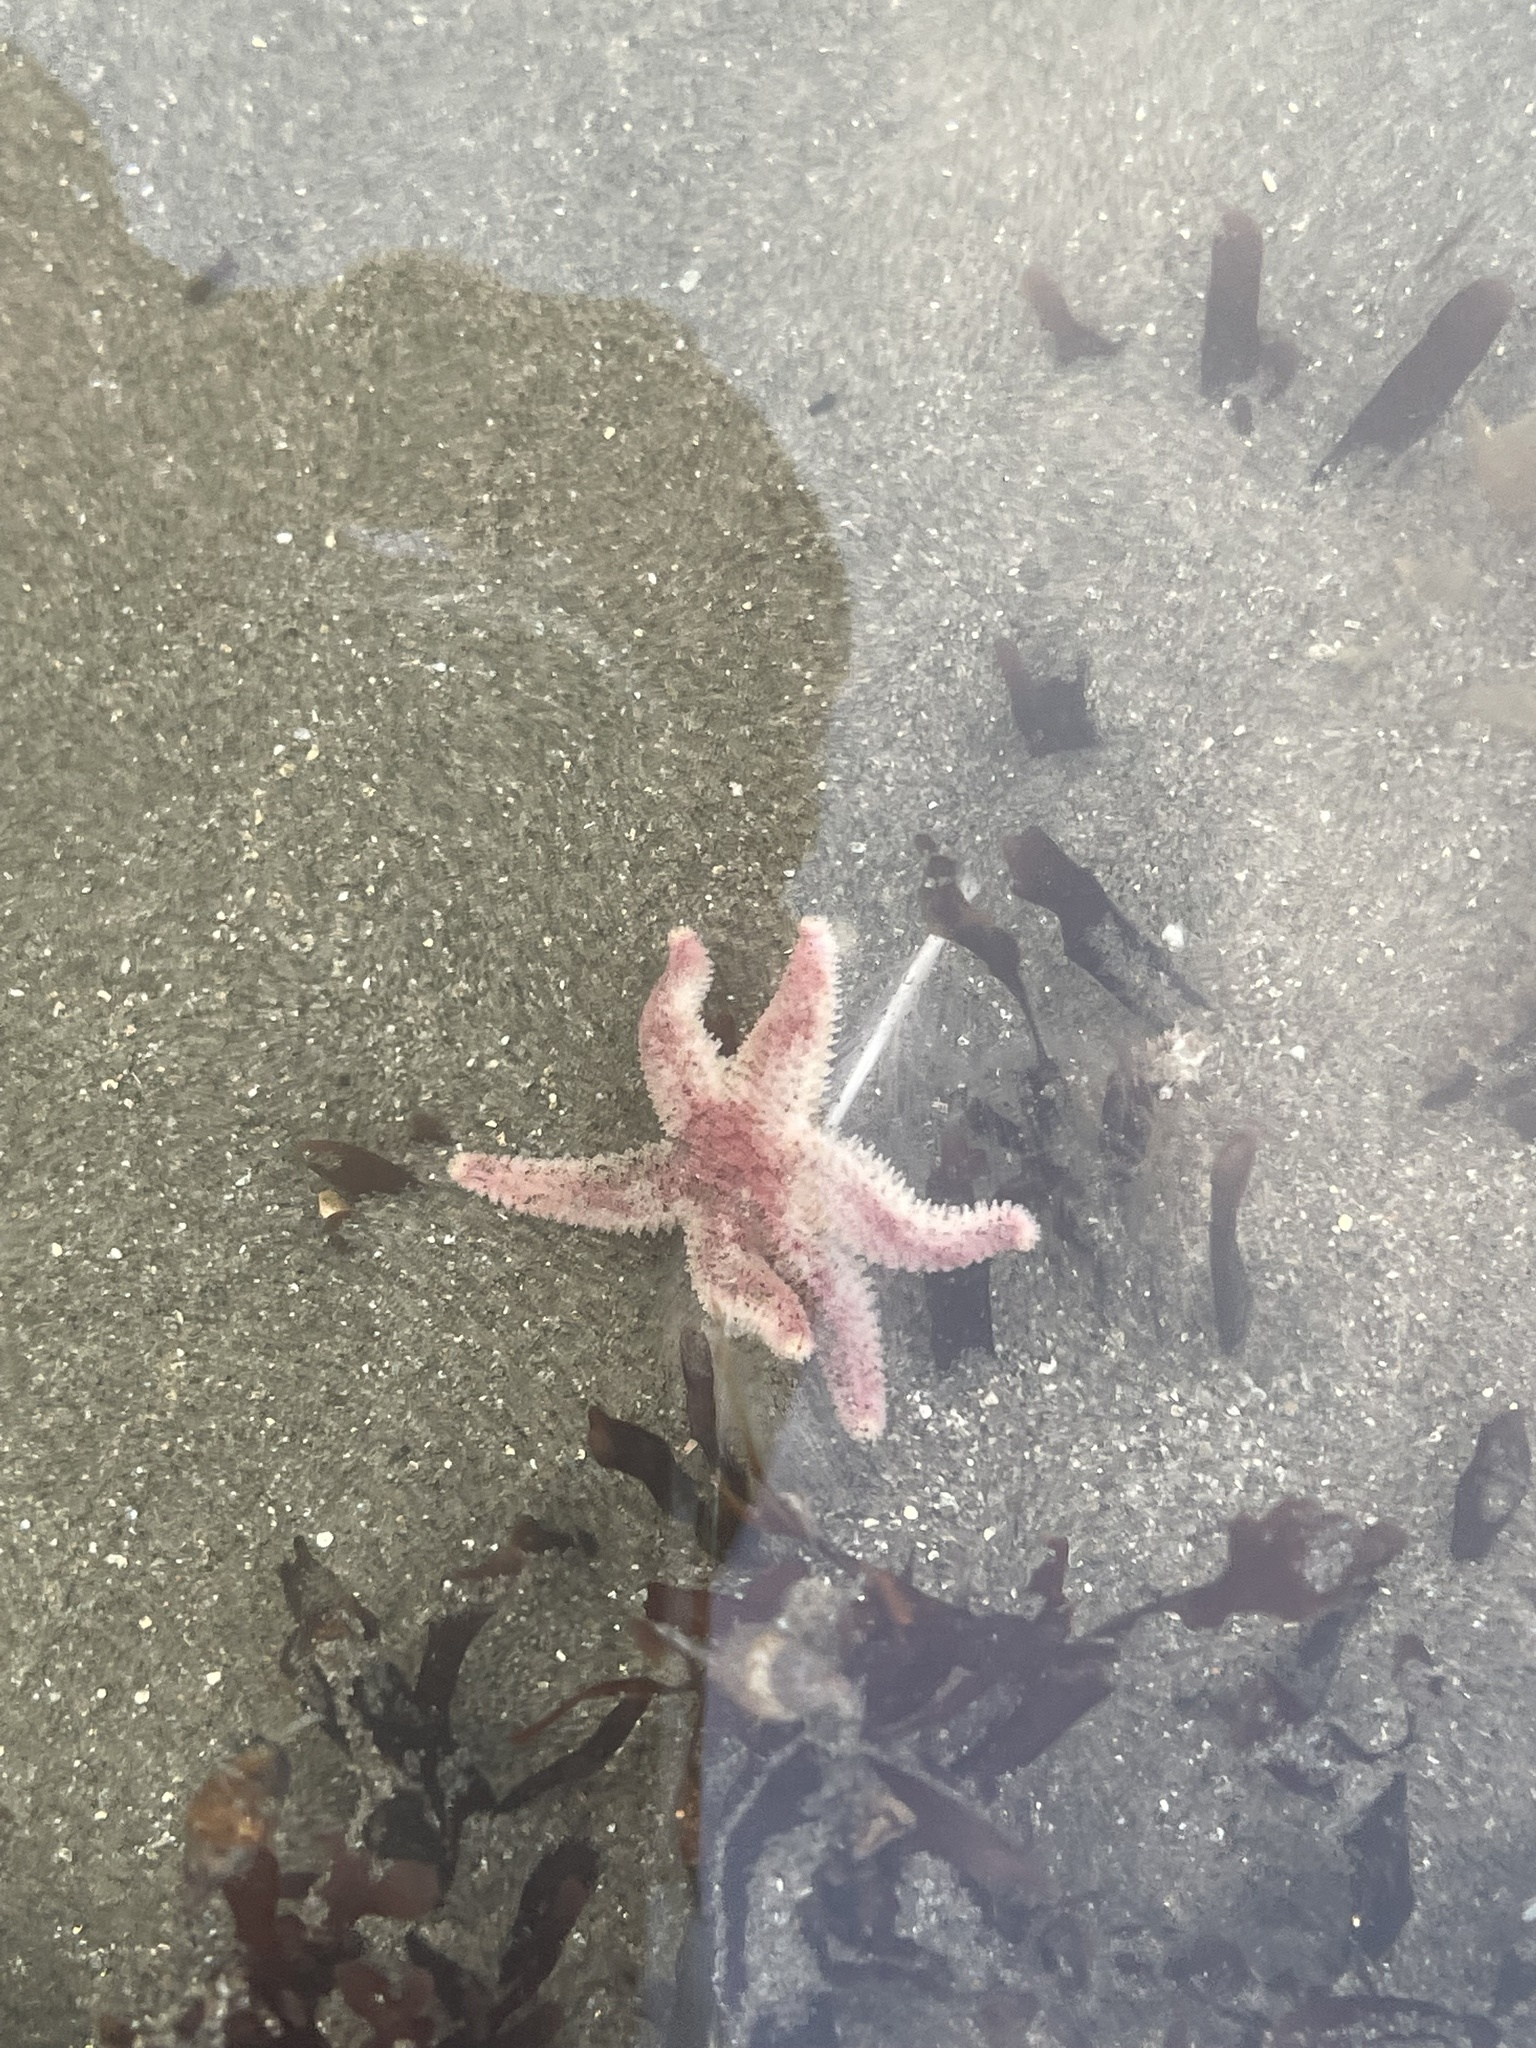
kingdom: Animalia
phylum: Echinodermata
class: Asteroidea
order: Forcipulatida
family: Asteriidae
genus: Leptasterias
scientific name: Leptasterias hexactis
